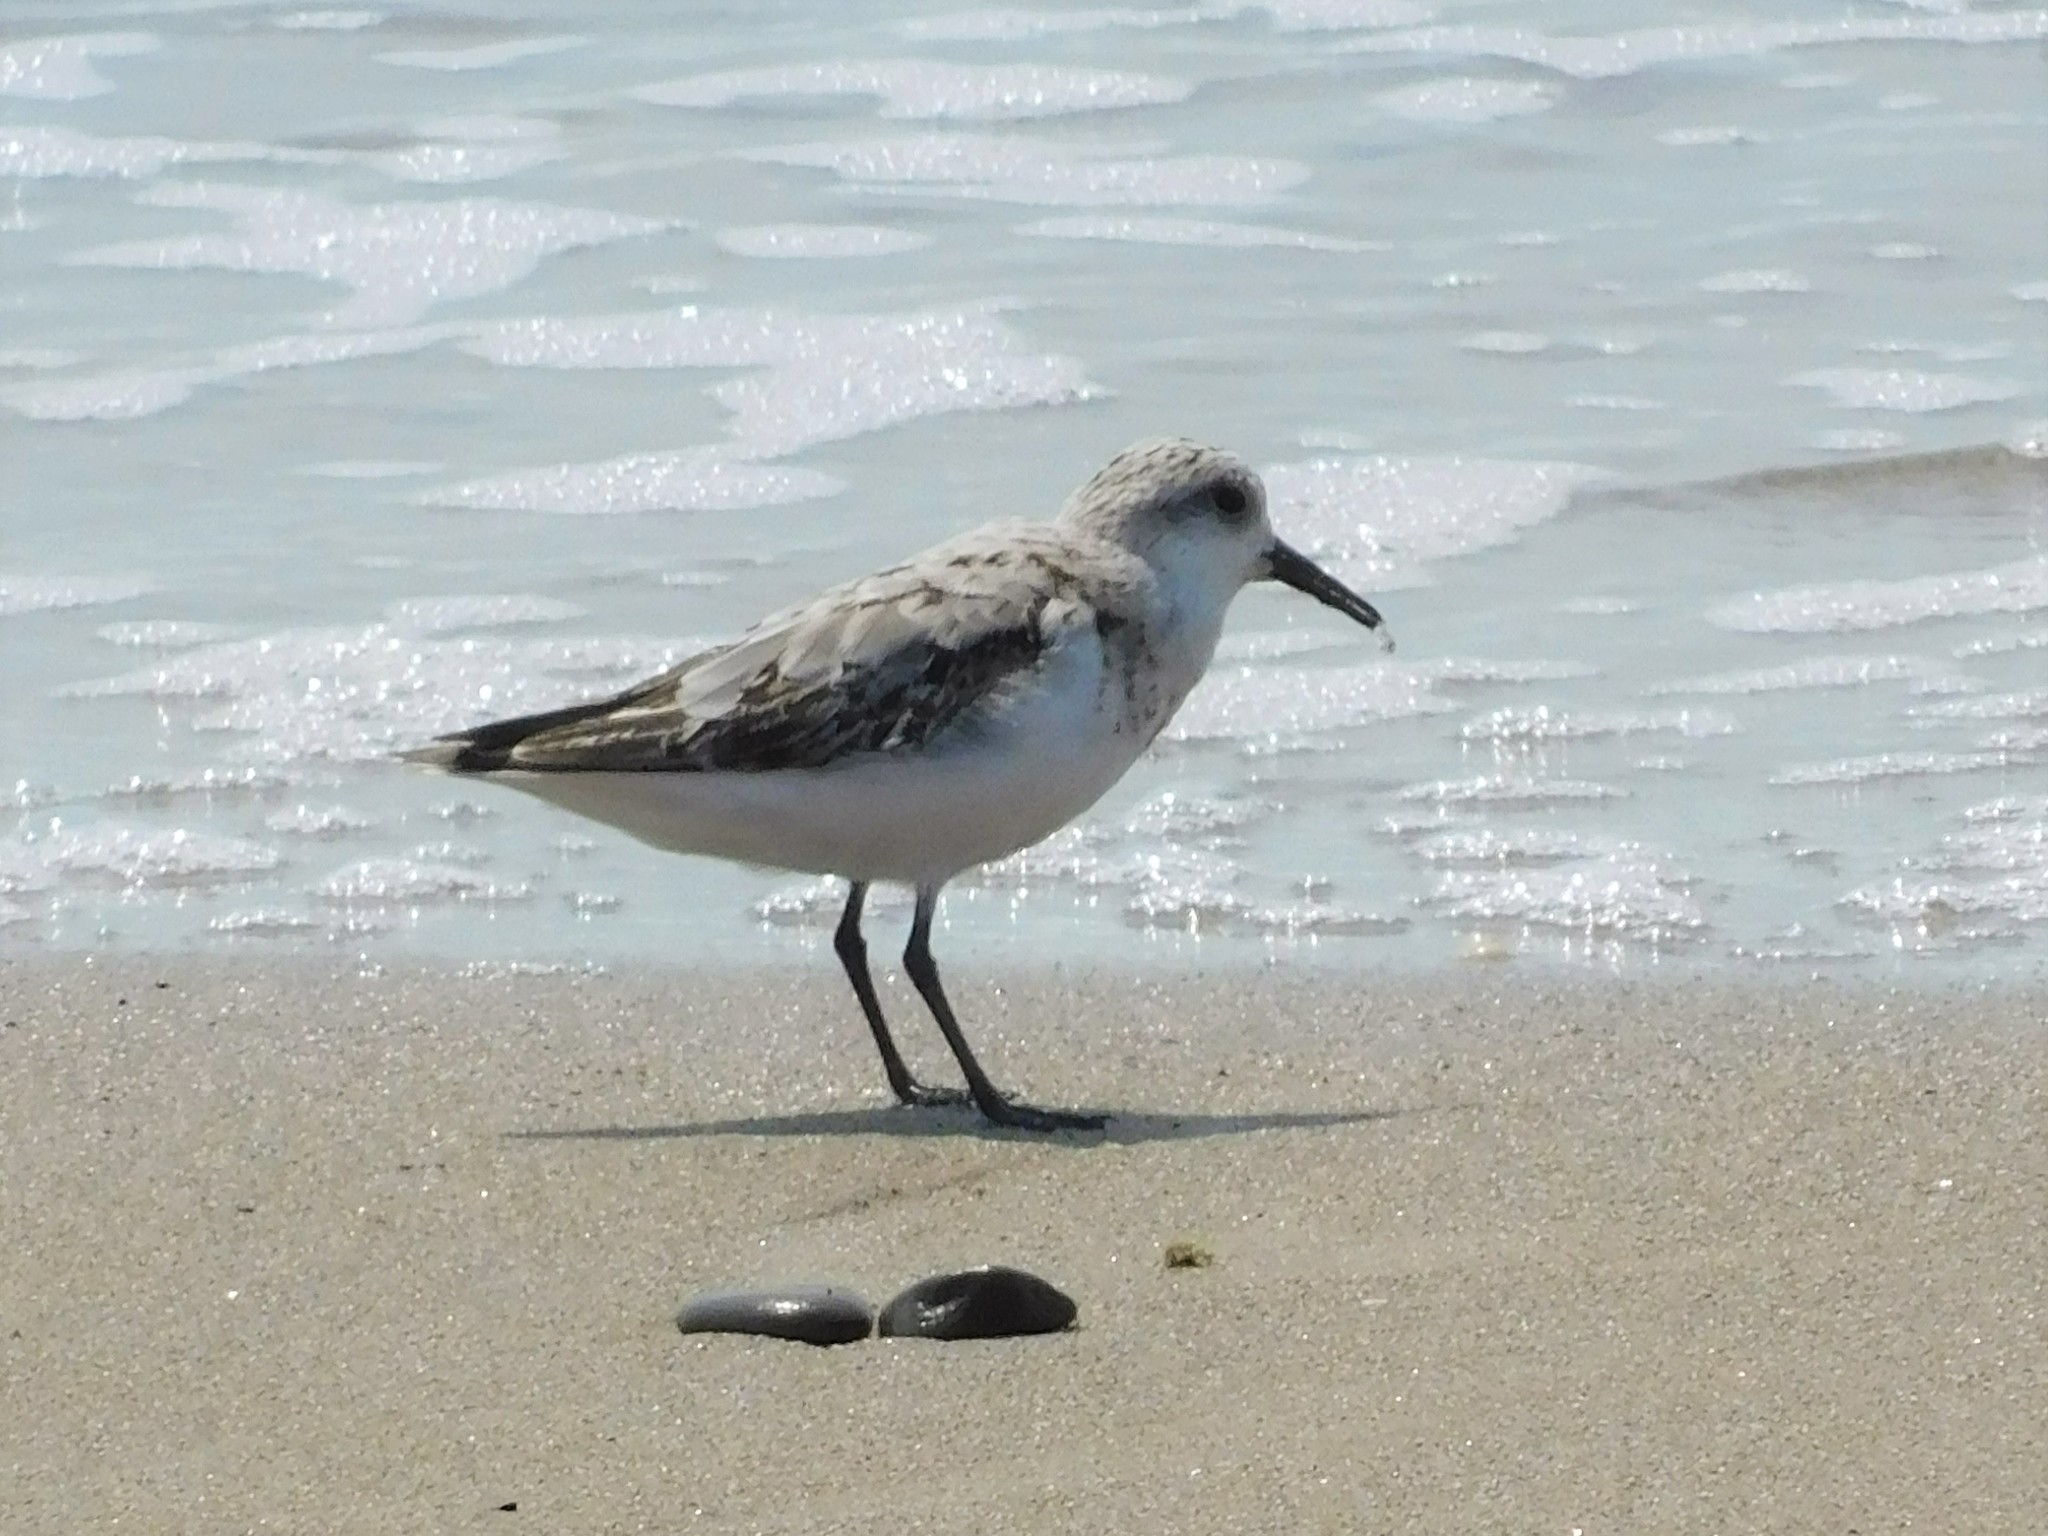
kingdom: Animalia
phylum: Chordata
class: Aves
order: Charadriiformes
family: Scolopacidae
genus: Calidris
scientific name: Calidris alba
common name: Sanderling
